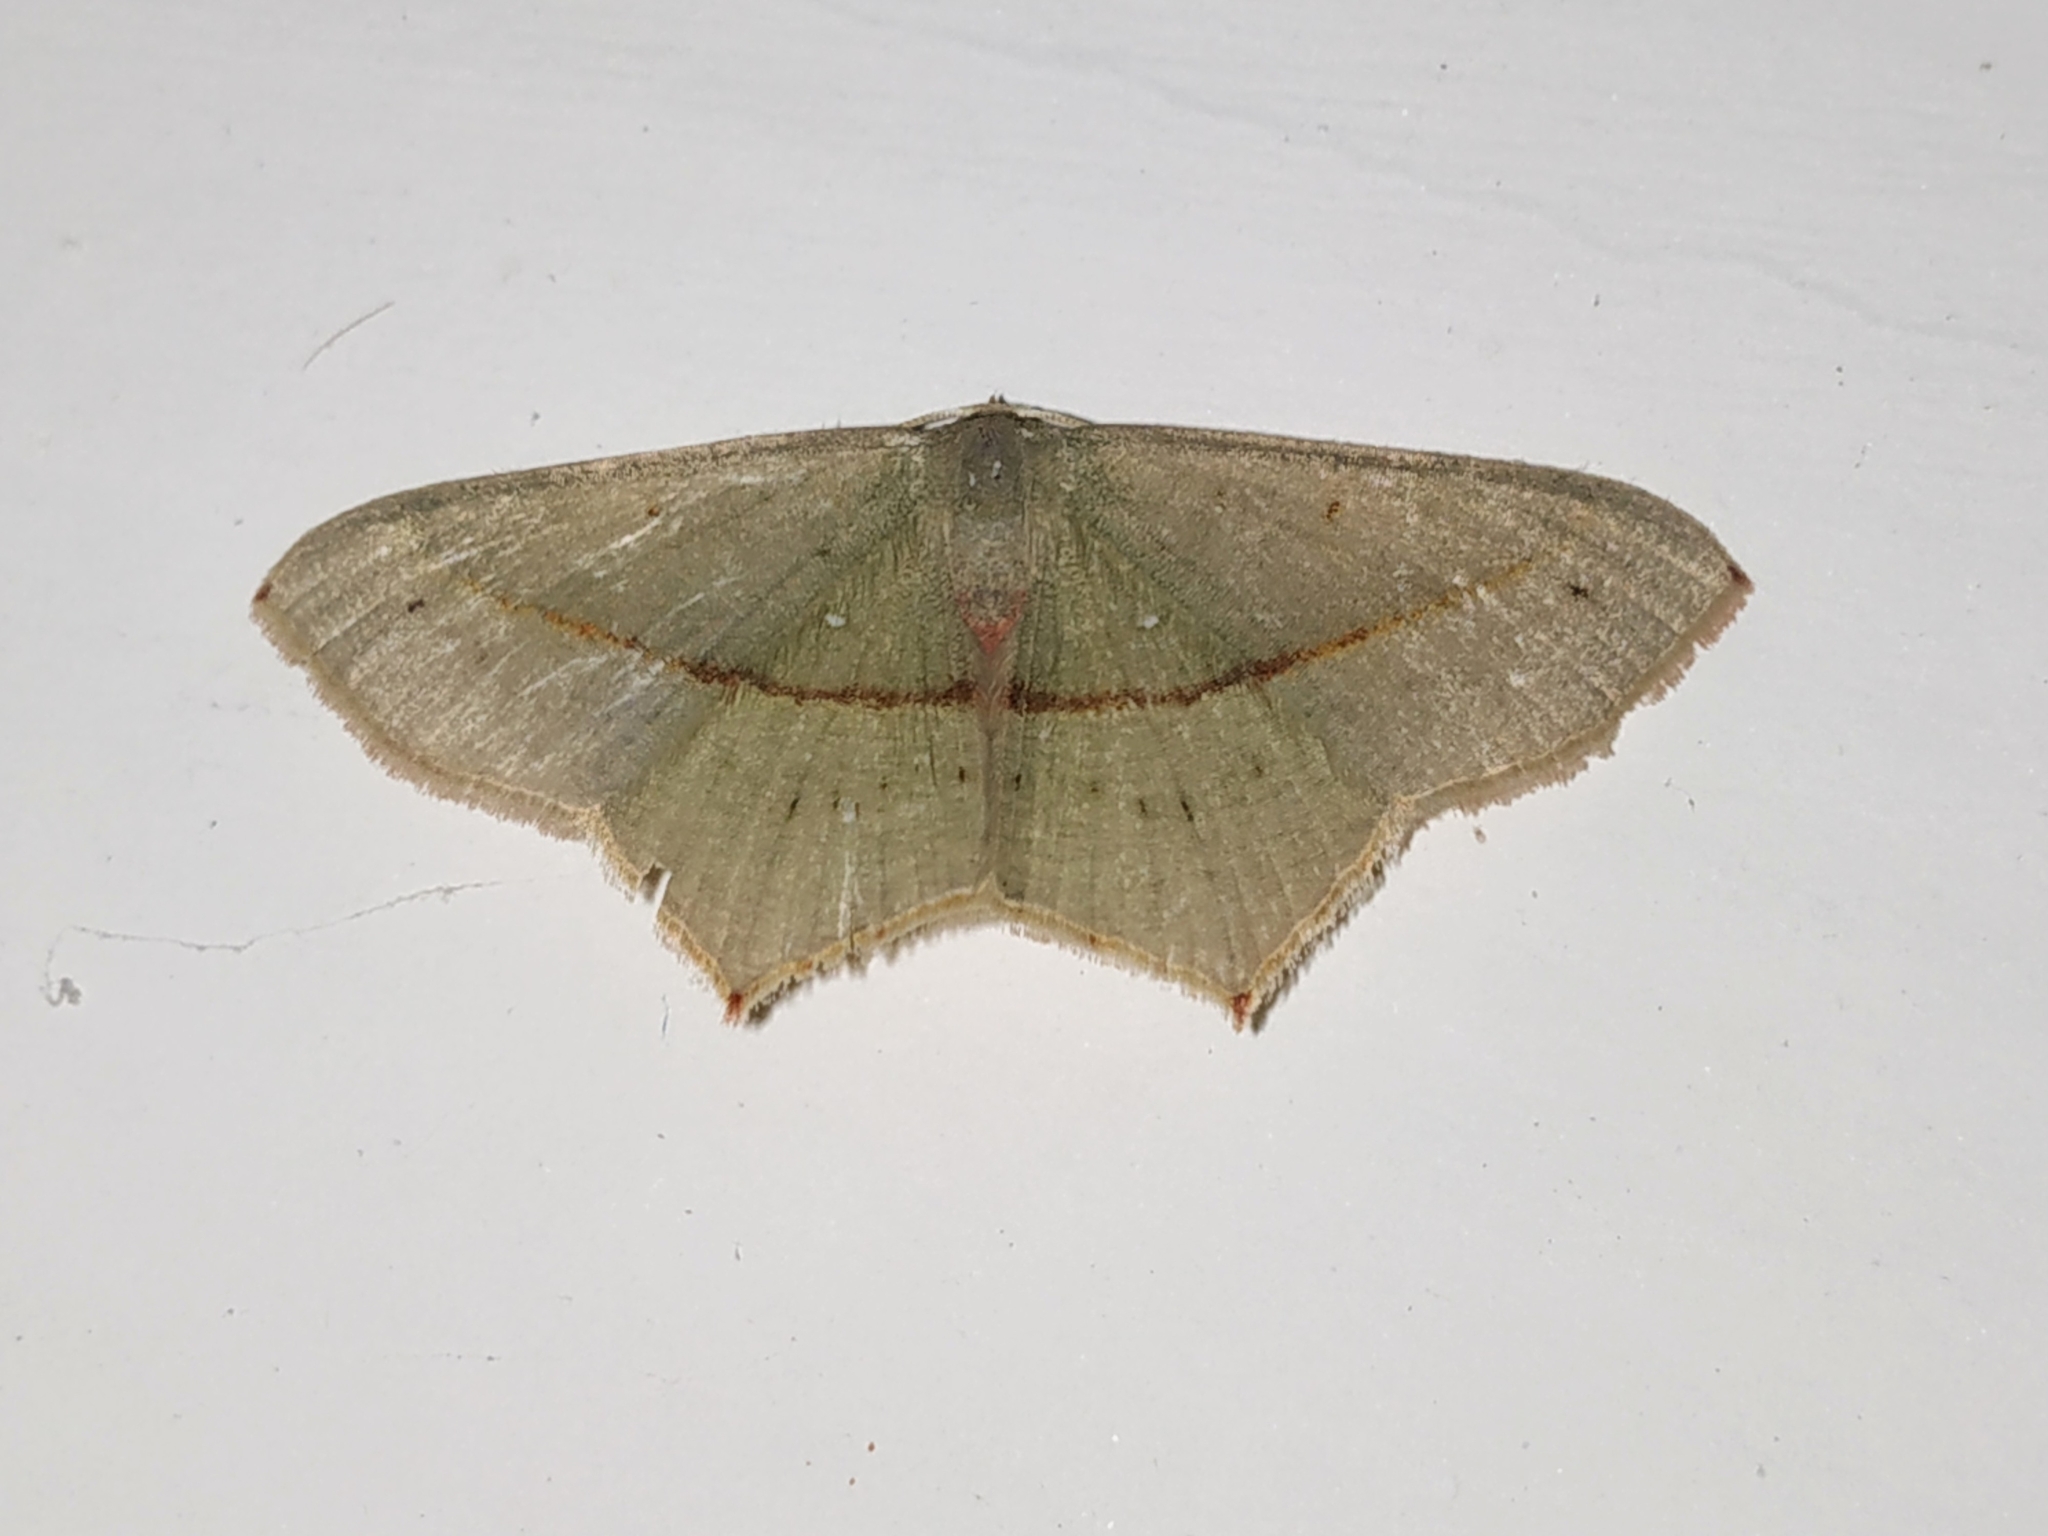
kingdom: Animalia
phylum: Arthropoda
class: Insecta
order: Lepidoptera
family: Geometridae
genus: Traminda
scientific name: Traminda mundissima
